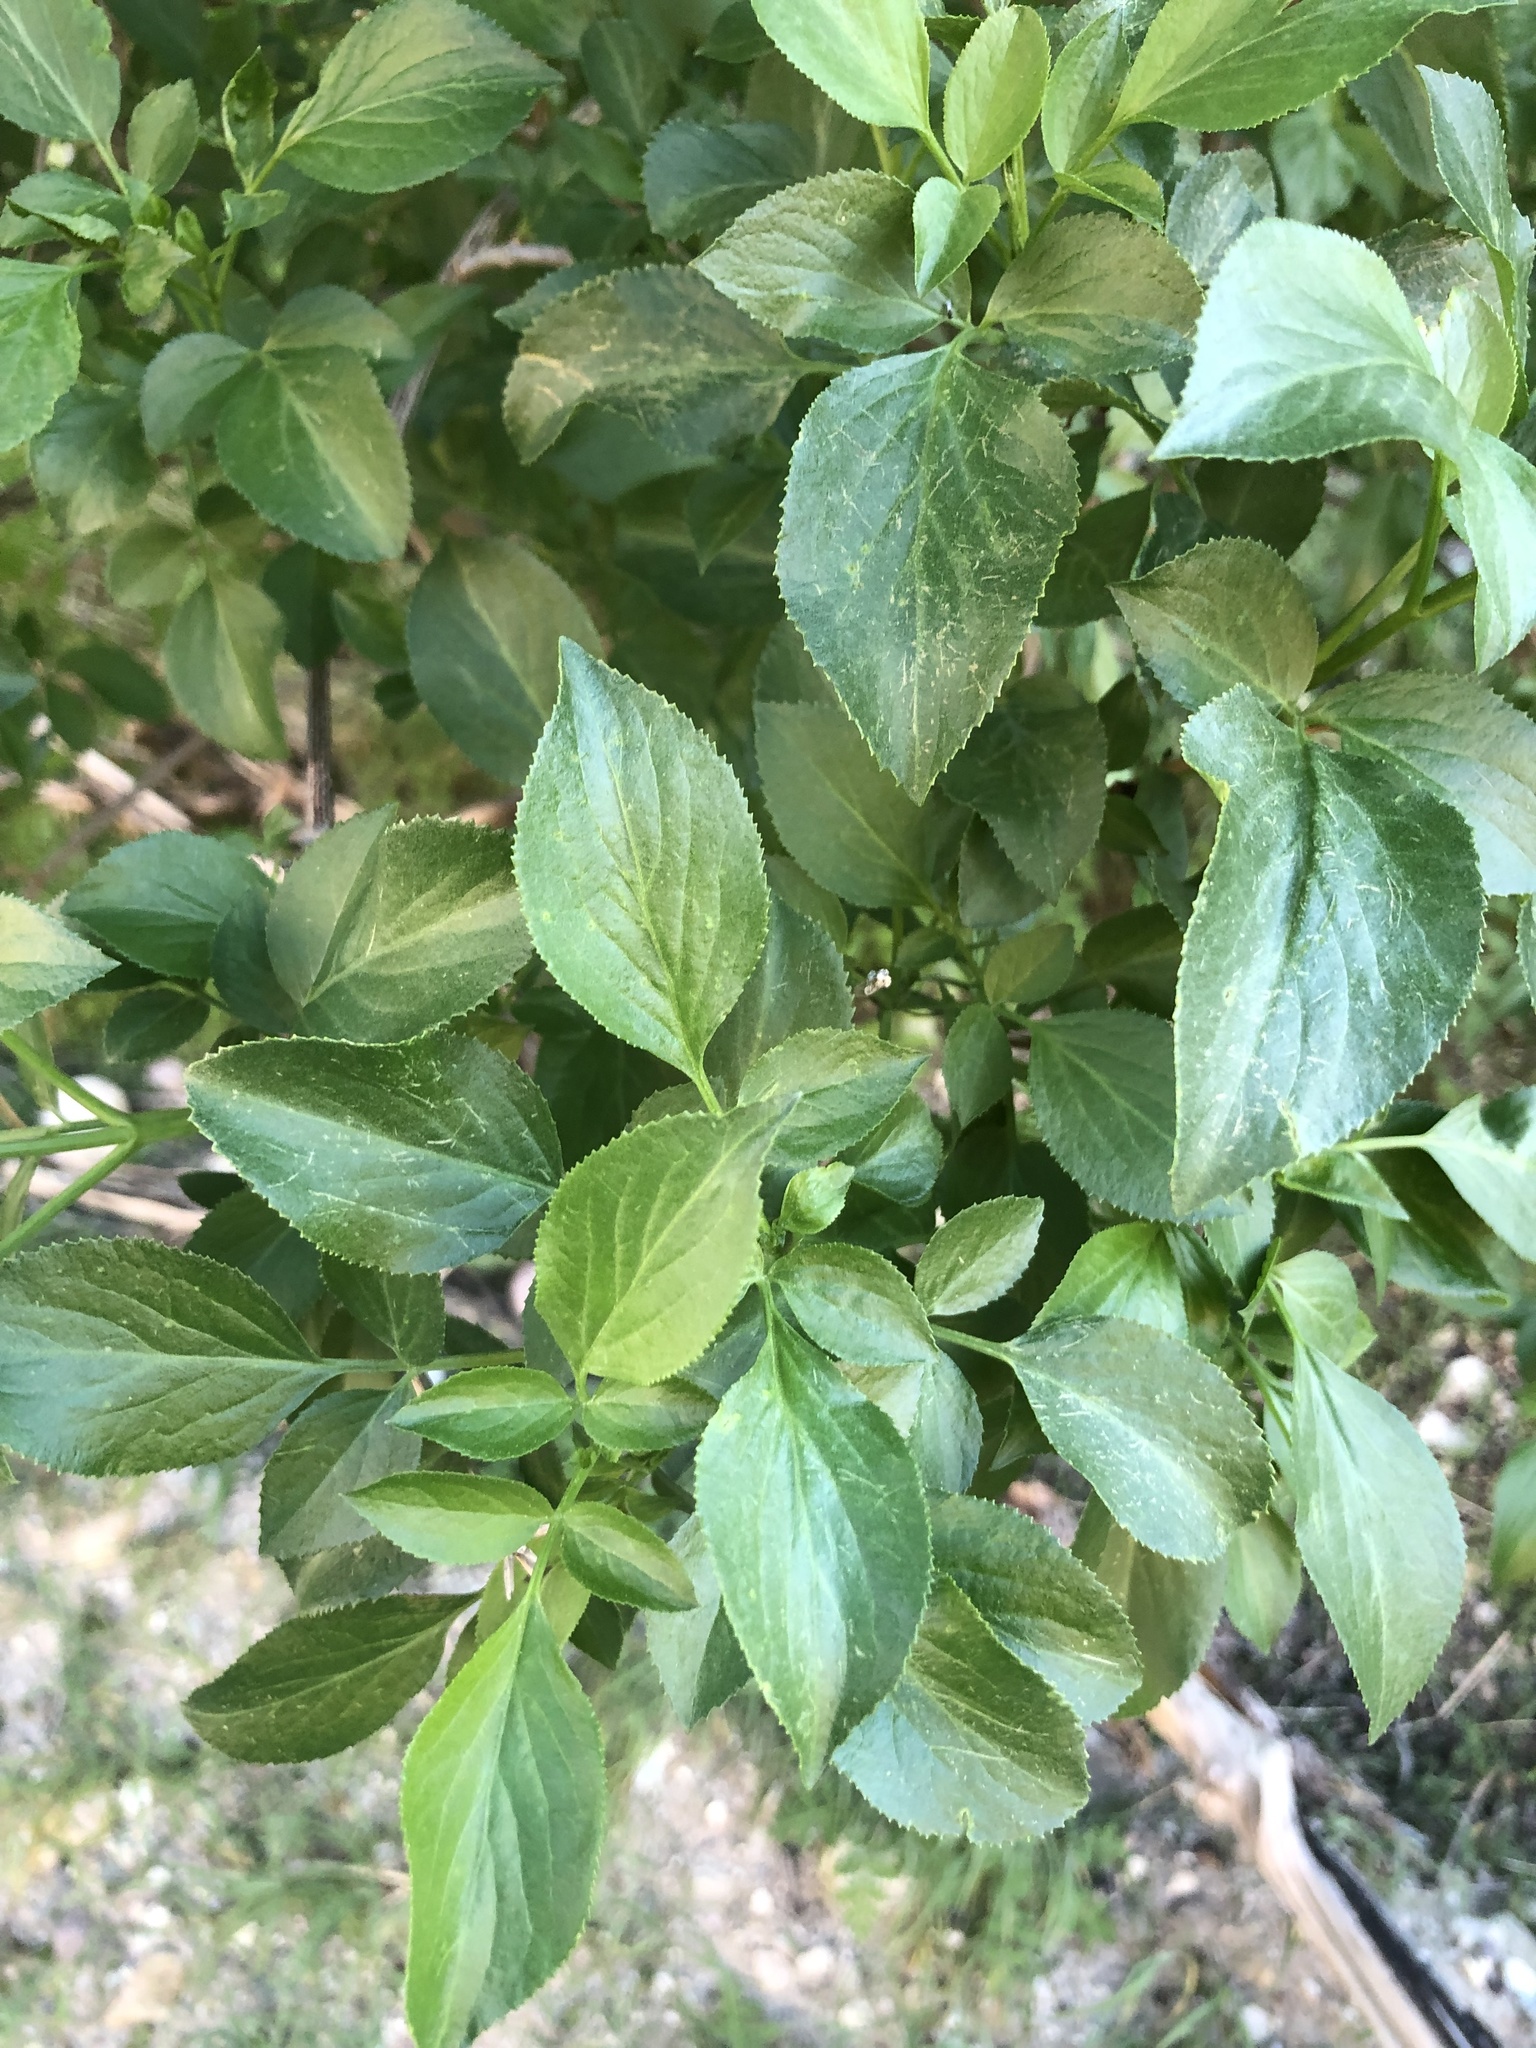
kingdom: Plantae
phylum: Tracheophyta
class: Magnoliopsida
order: Dipsacales
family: Viburnaceae
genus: Sambucus
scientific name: Sambucus cerulea
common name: Blue elder
